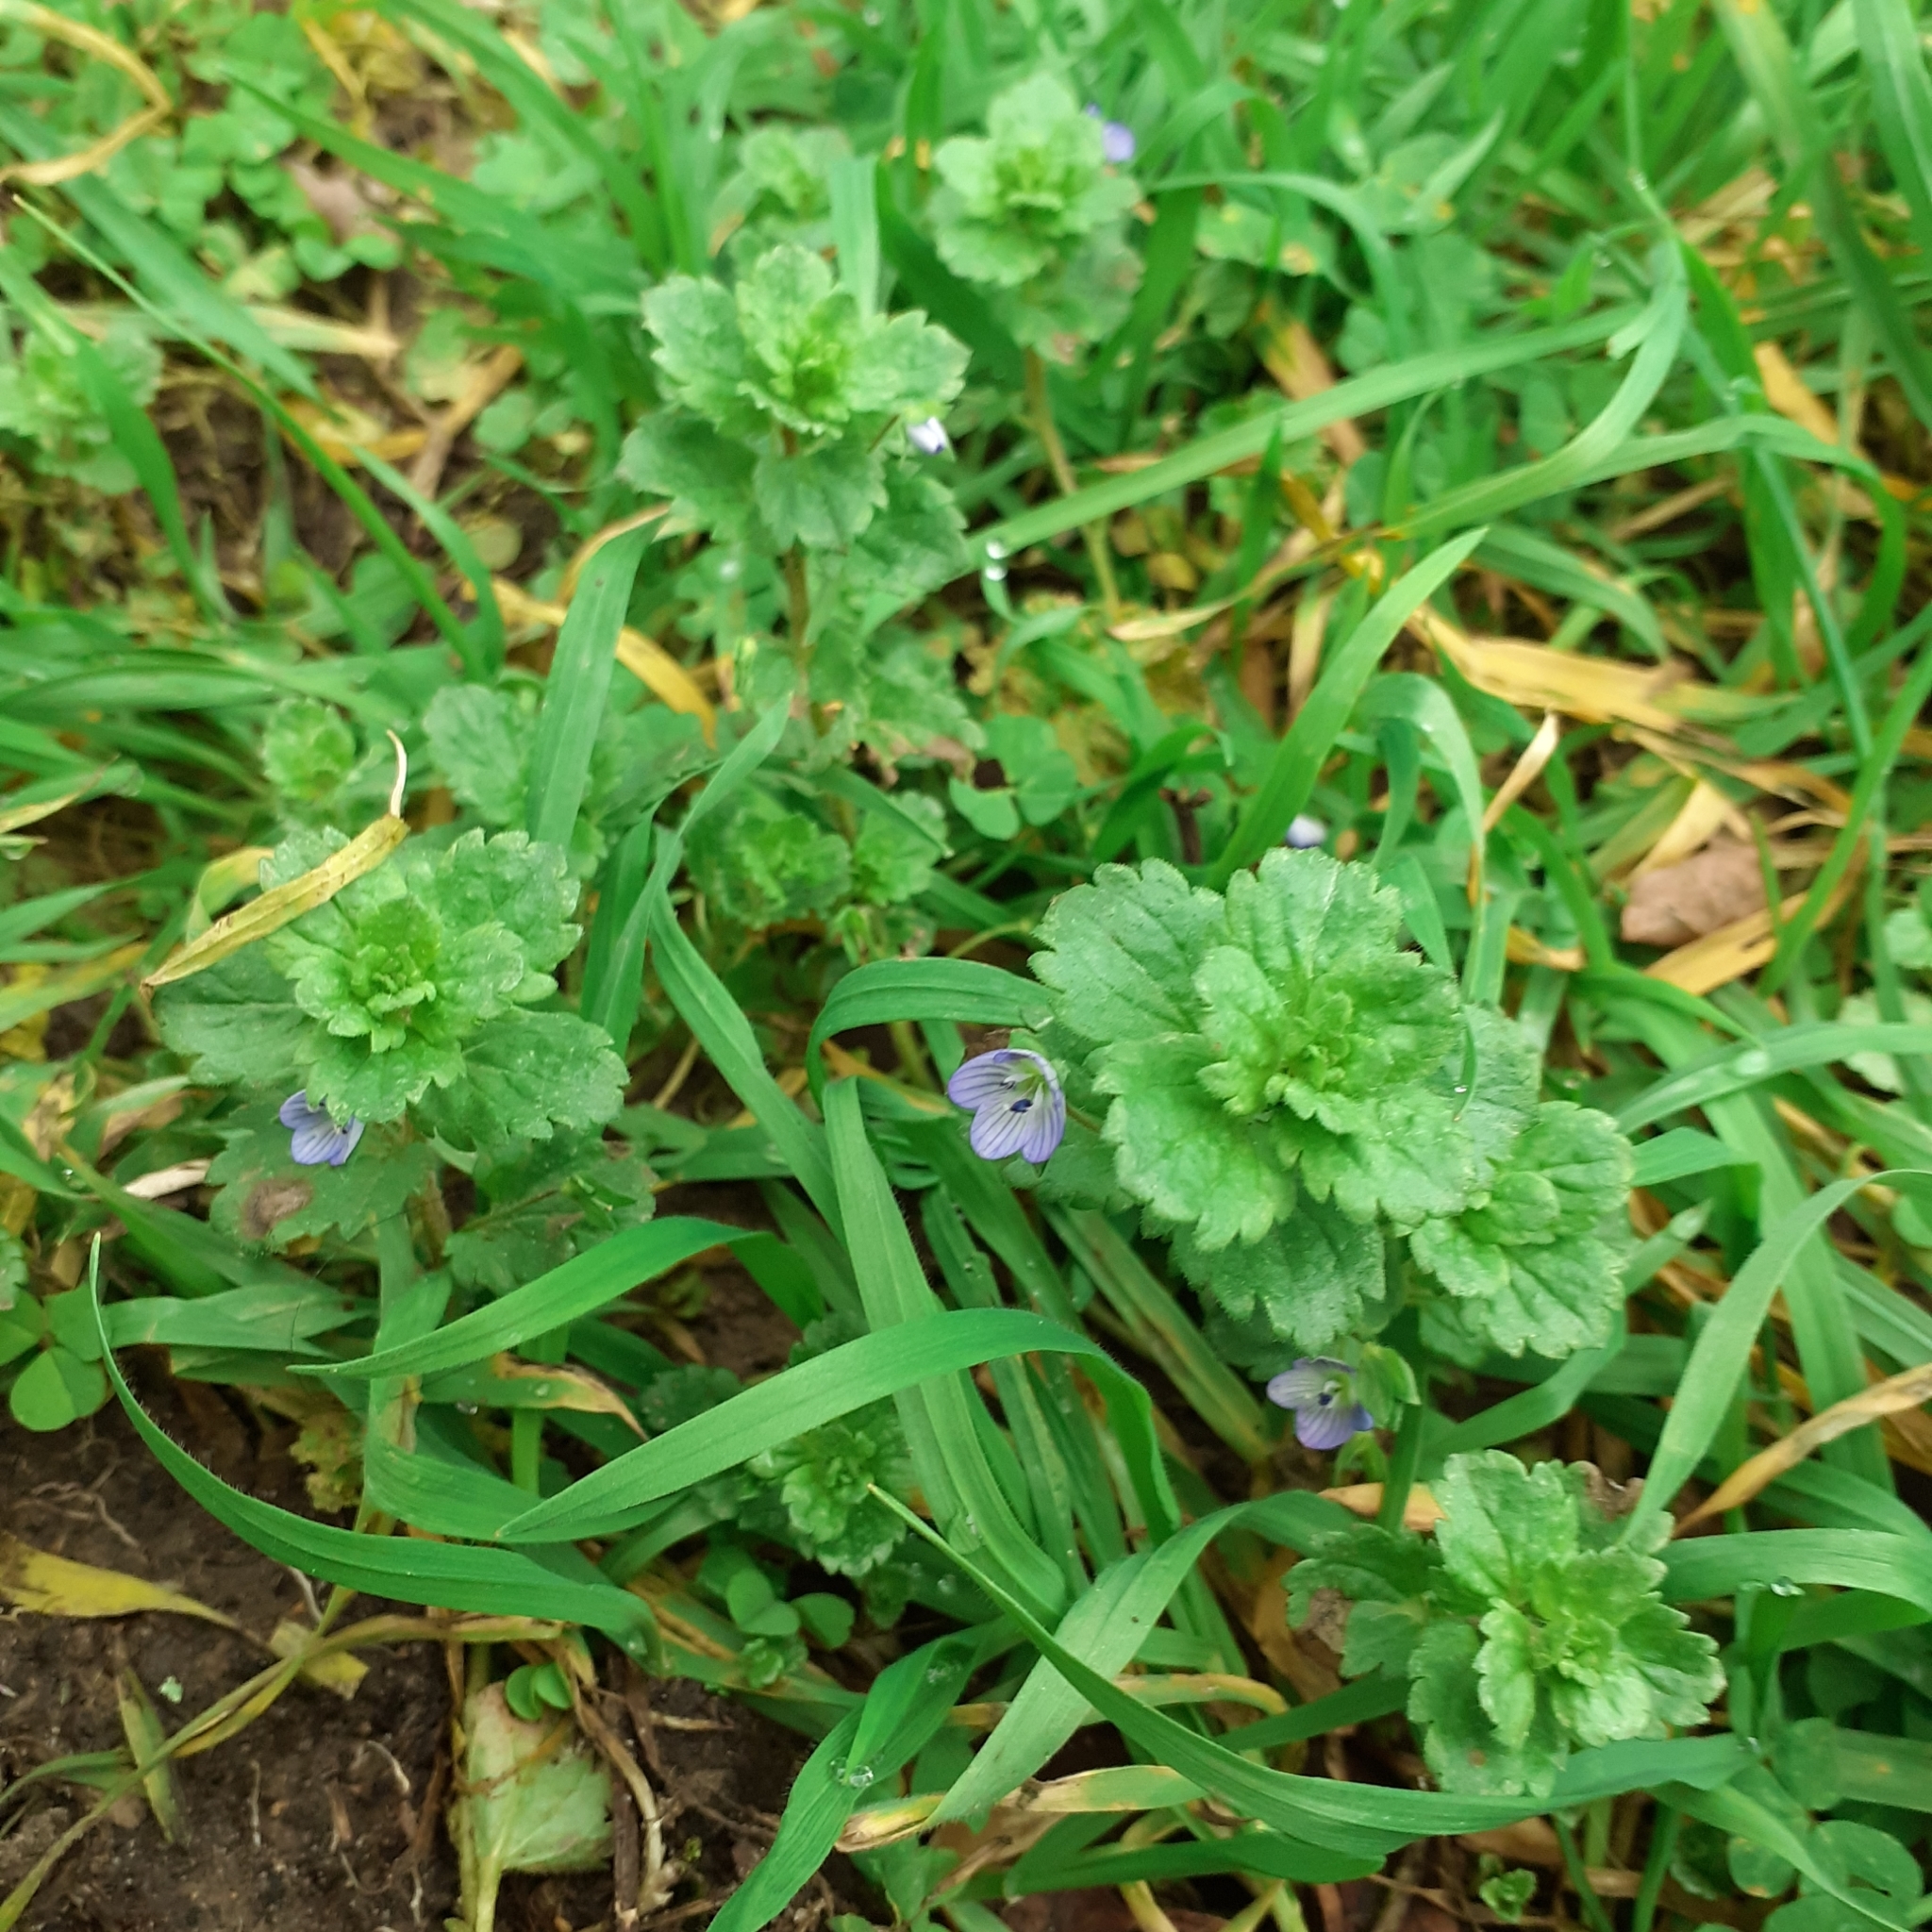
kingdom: Plantae
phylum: Tracheophyta
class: Magnoliopsida
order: Lamiales
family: Plantaginaceae
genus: Veronica
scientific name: Veronica persica
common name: Common field-speedwell
